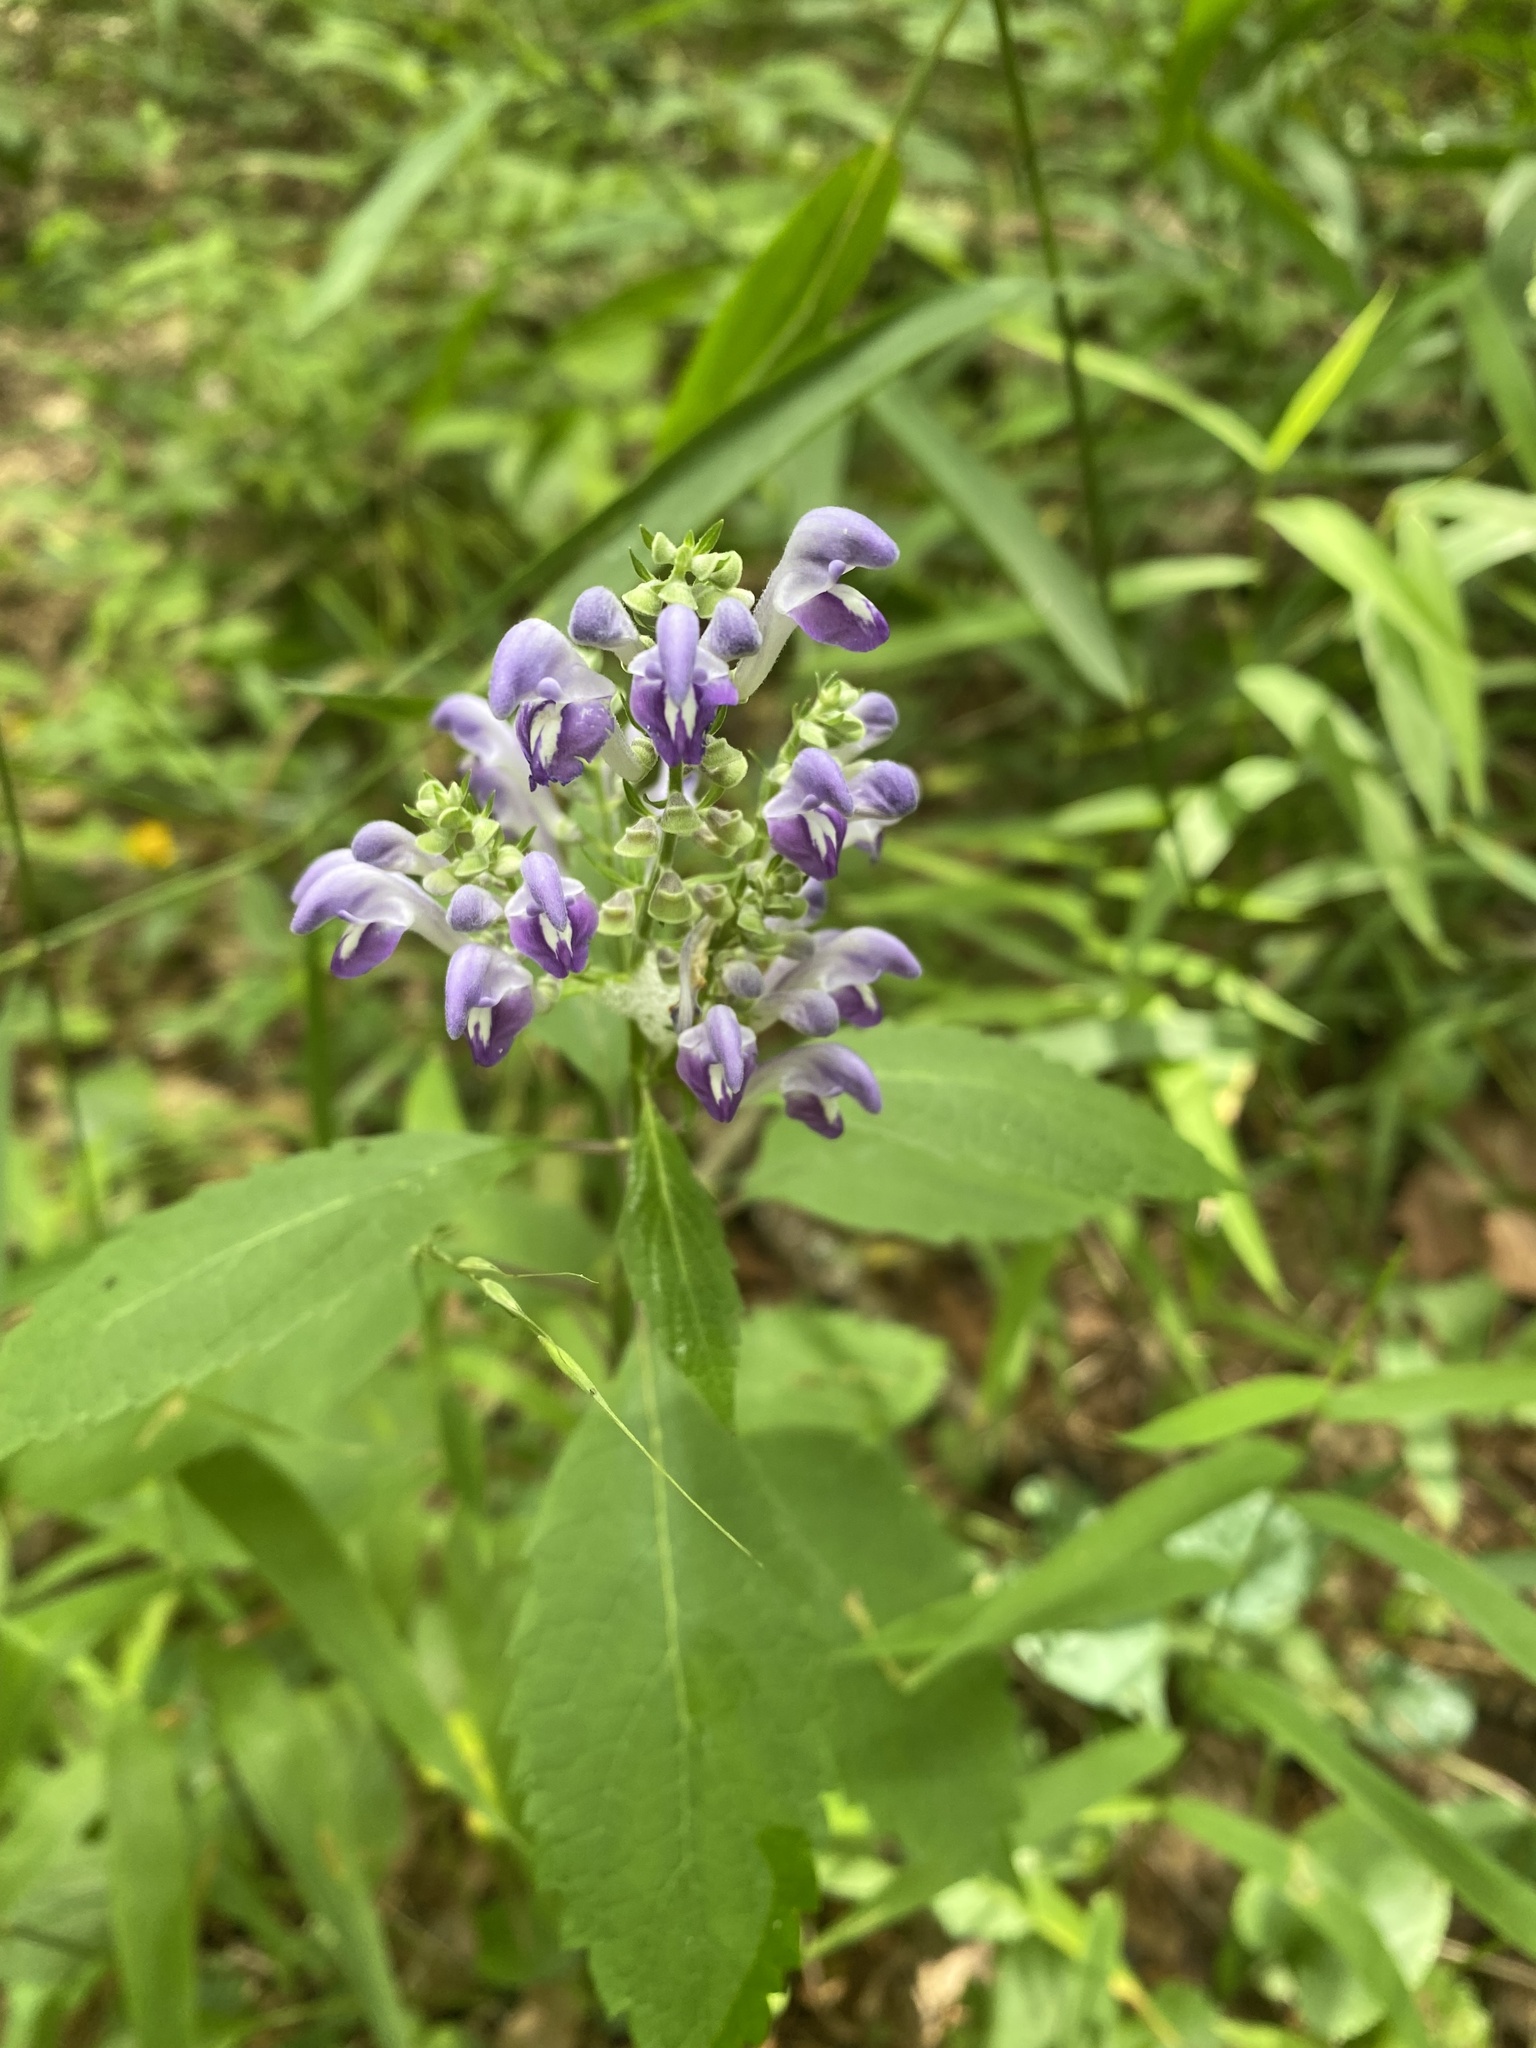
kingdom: Plantae
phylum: Tracheophyta
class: Magnoliopsida
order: Lamiales
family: Lamiaceae
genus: Scutellaria
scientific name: Scutellaria incana
